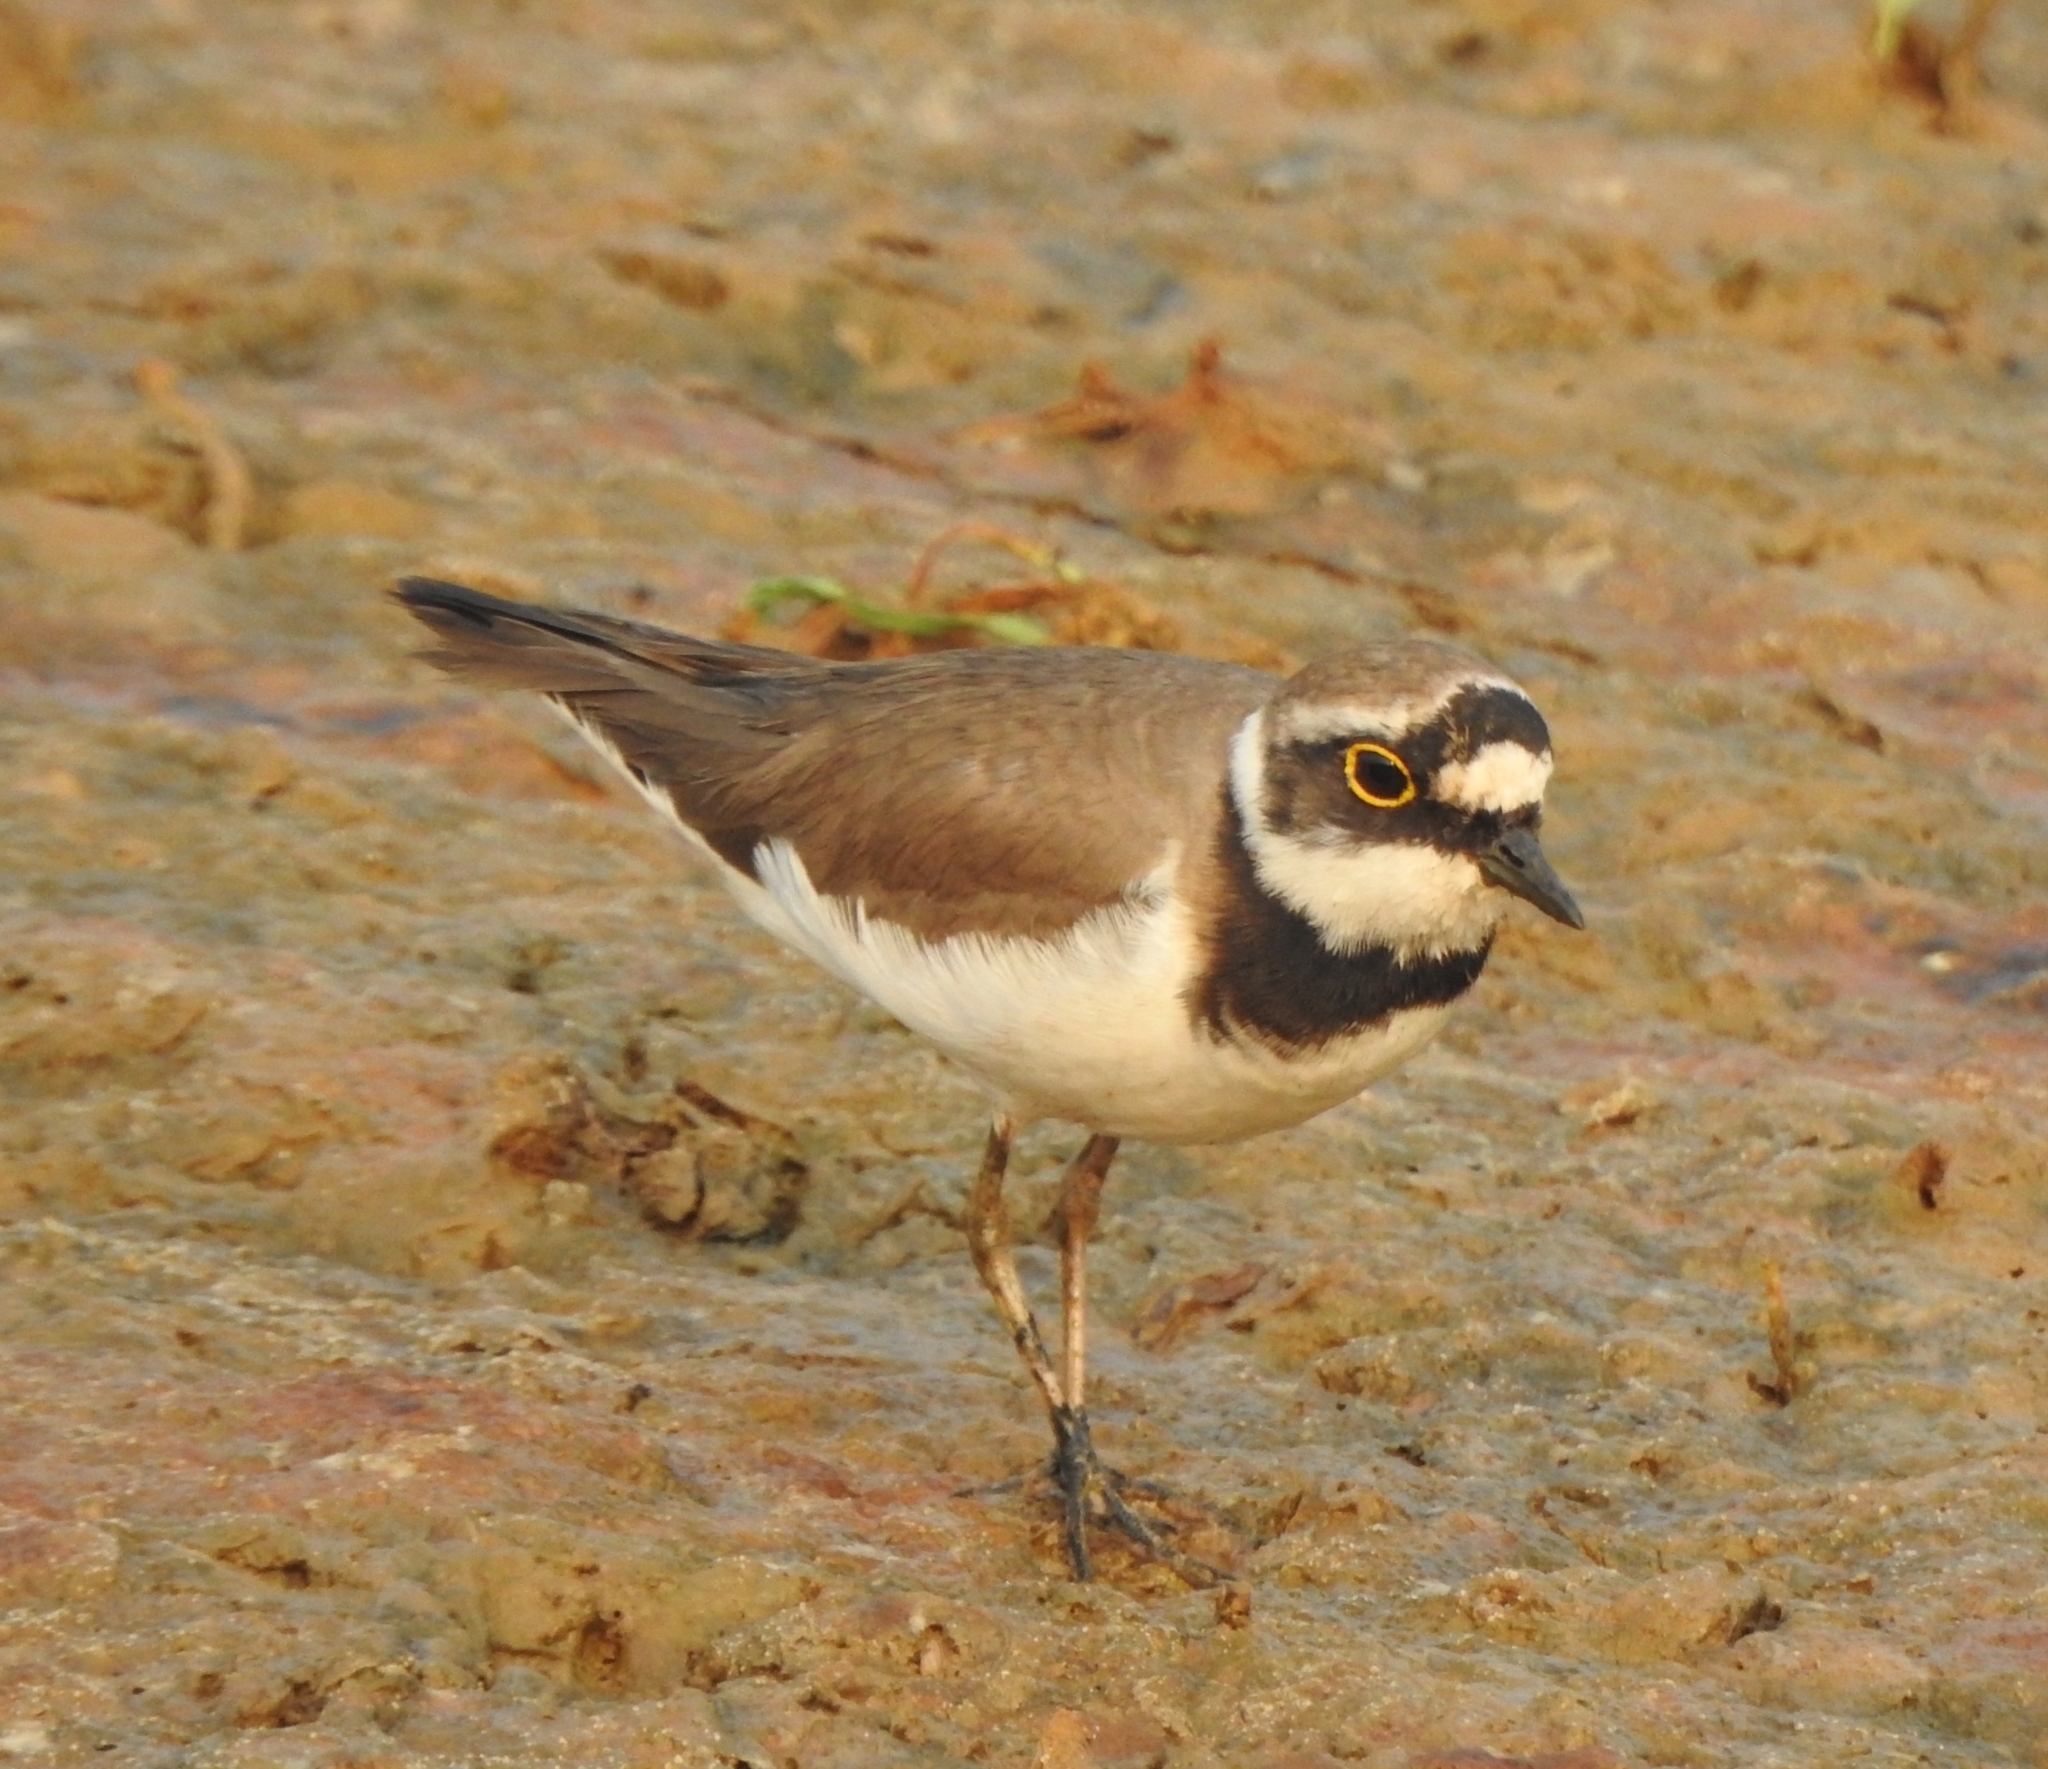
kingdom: Animalia
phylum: Chordata
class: Aves
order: Charadriiformes
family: Charadriidae
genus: Charadrius
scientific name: Charadrius dubius
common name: Little ringed plover
